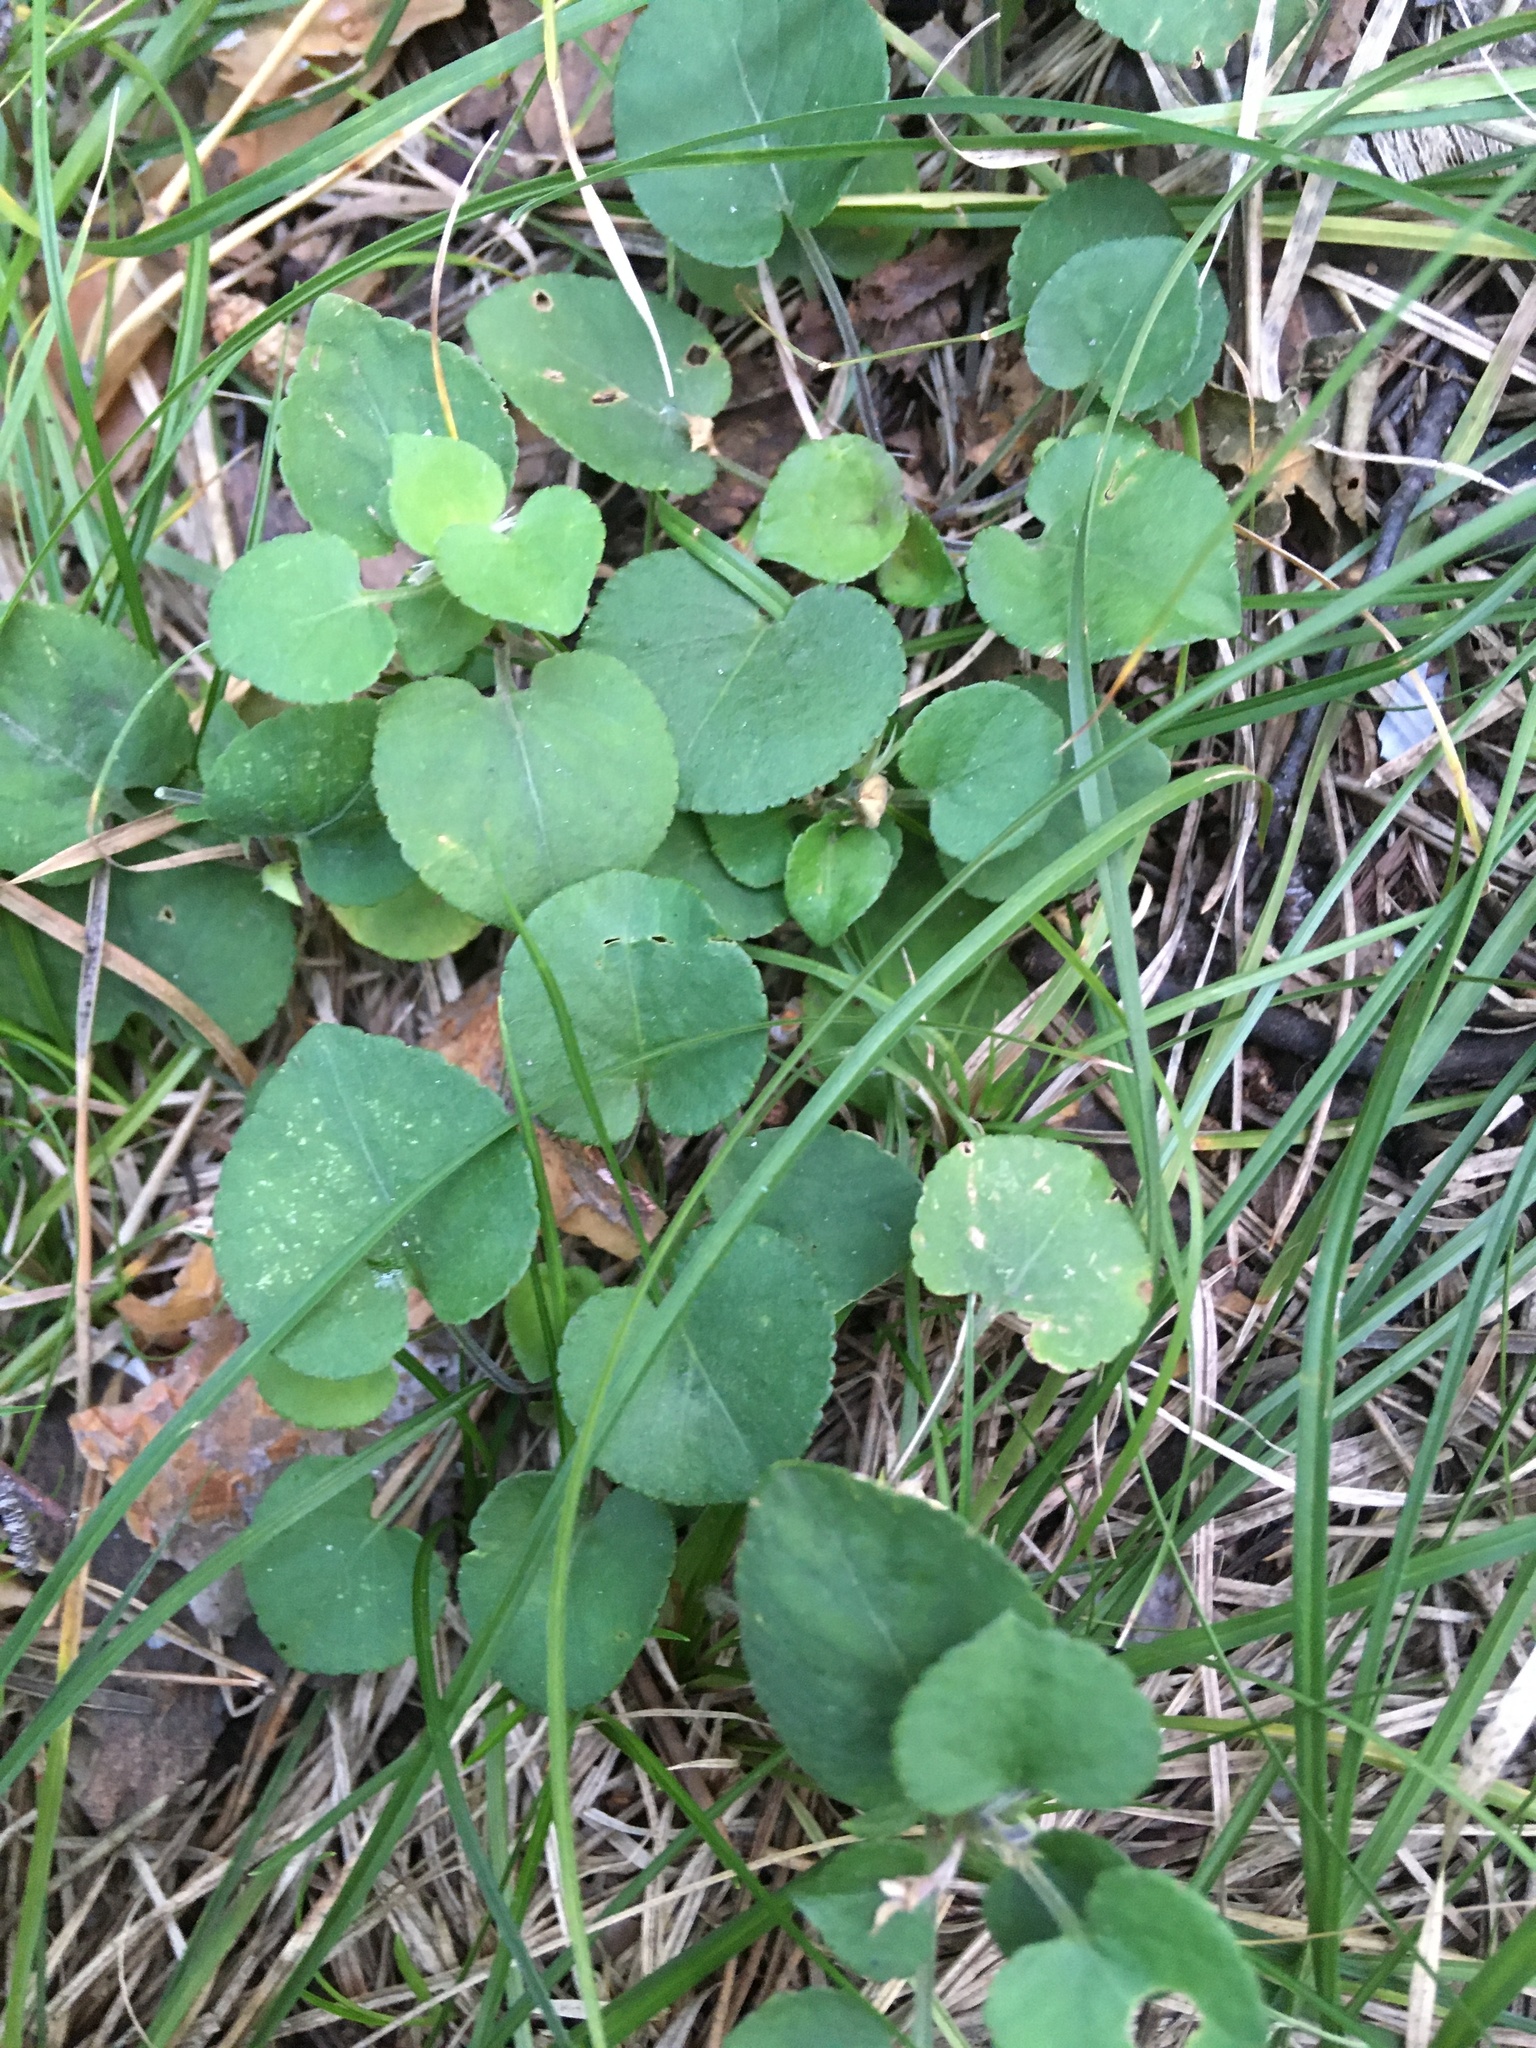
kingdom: Plantae
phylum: Tracheophyta
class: Magnoliopsida
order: Malpighiales
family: Violaceae
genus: Viola
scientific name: Viola rupestris
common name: Teesdale violet
